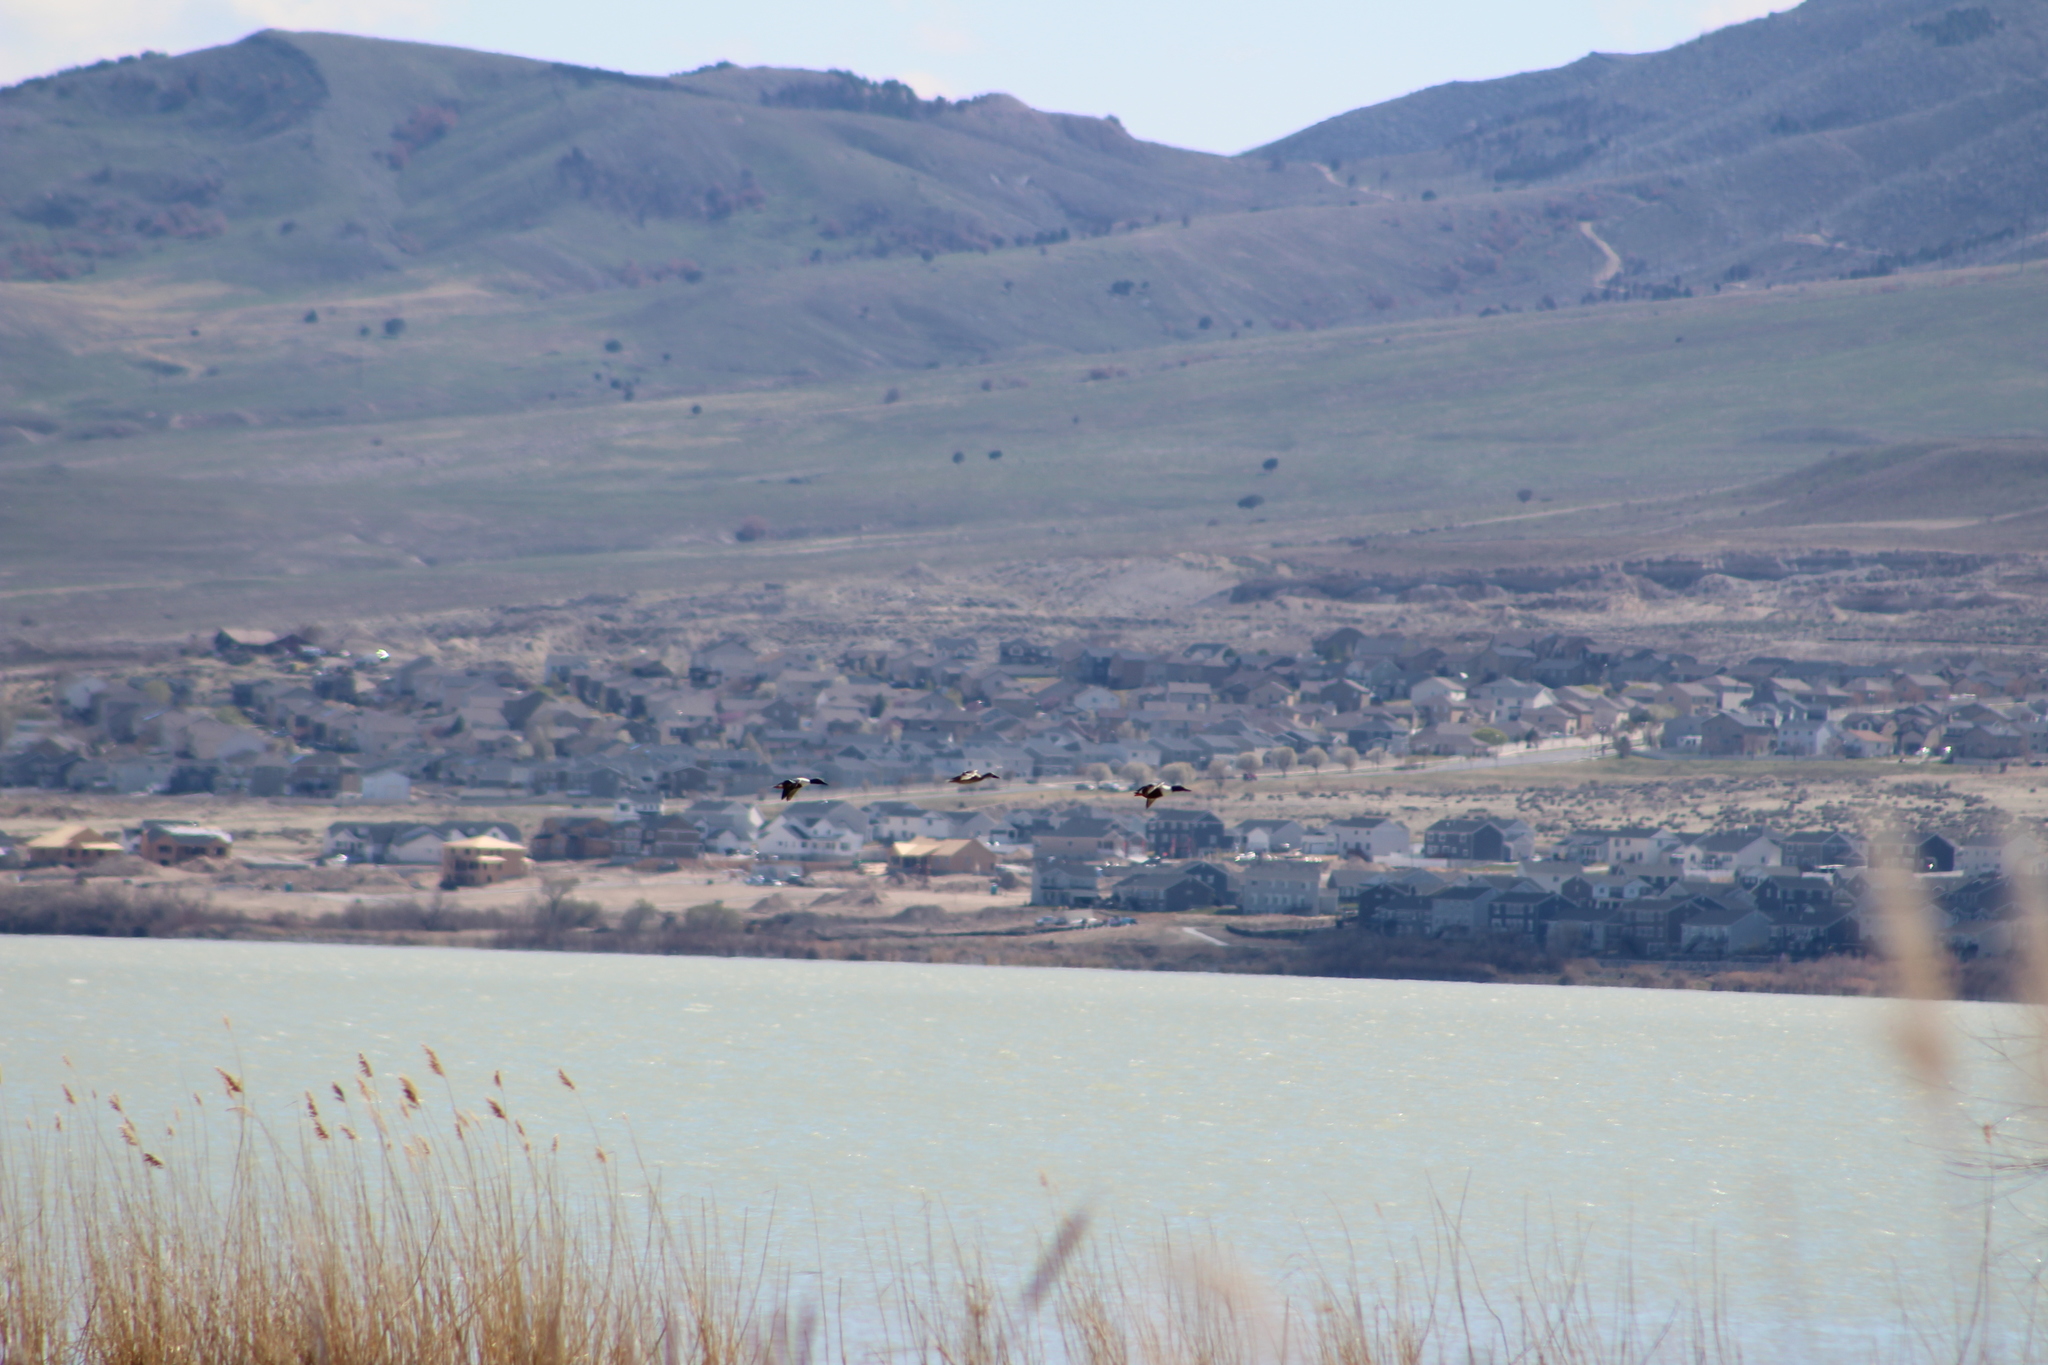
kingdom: Animalia
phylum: Chordata
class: Aves
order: Anseriformes
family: Anatidae
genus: Spatula
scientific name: Spatula clypeata
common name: Northern shoveler
